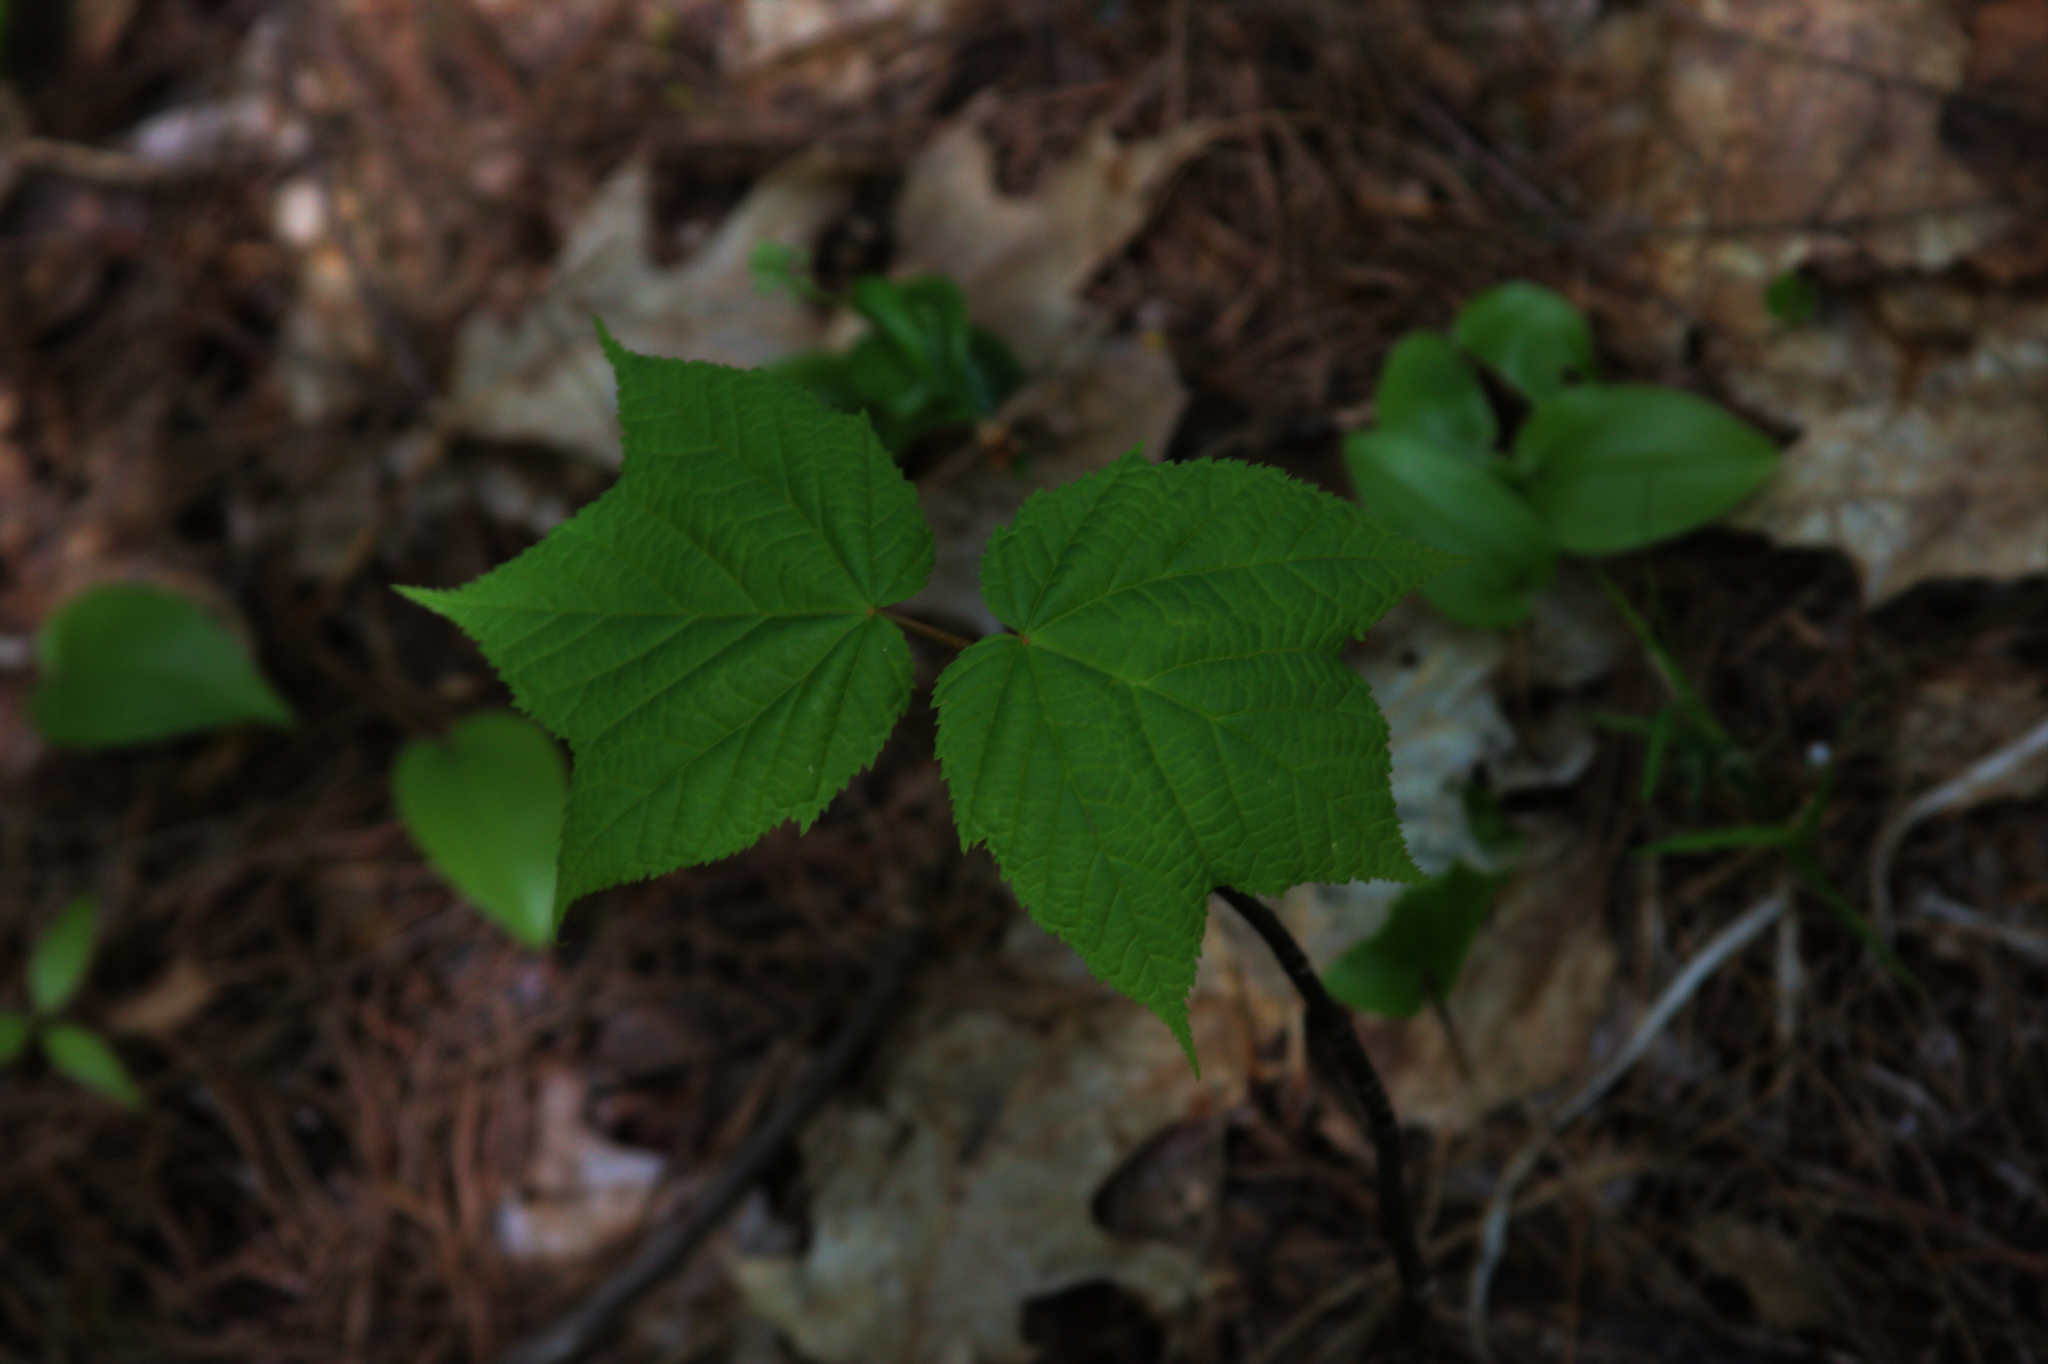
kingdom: Plantae
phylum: Tracheophyta
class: Magnoliopsida
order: Sapindales
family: Sapindaceae
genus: Acer
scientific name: Acer pensylvanicum
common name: Moosewood
